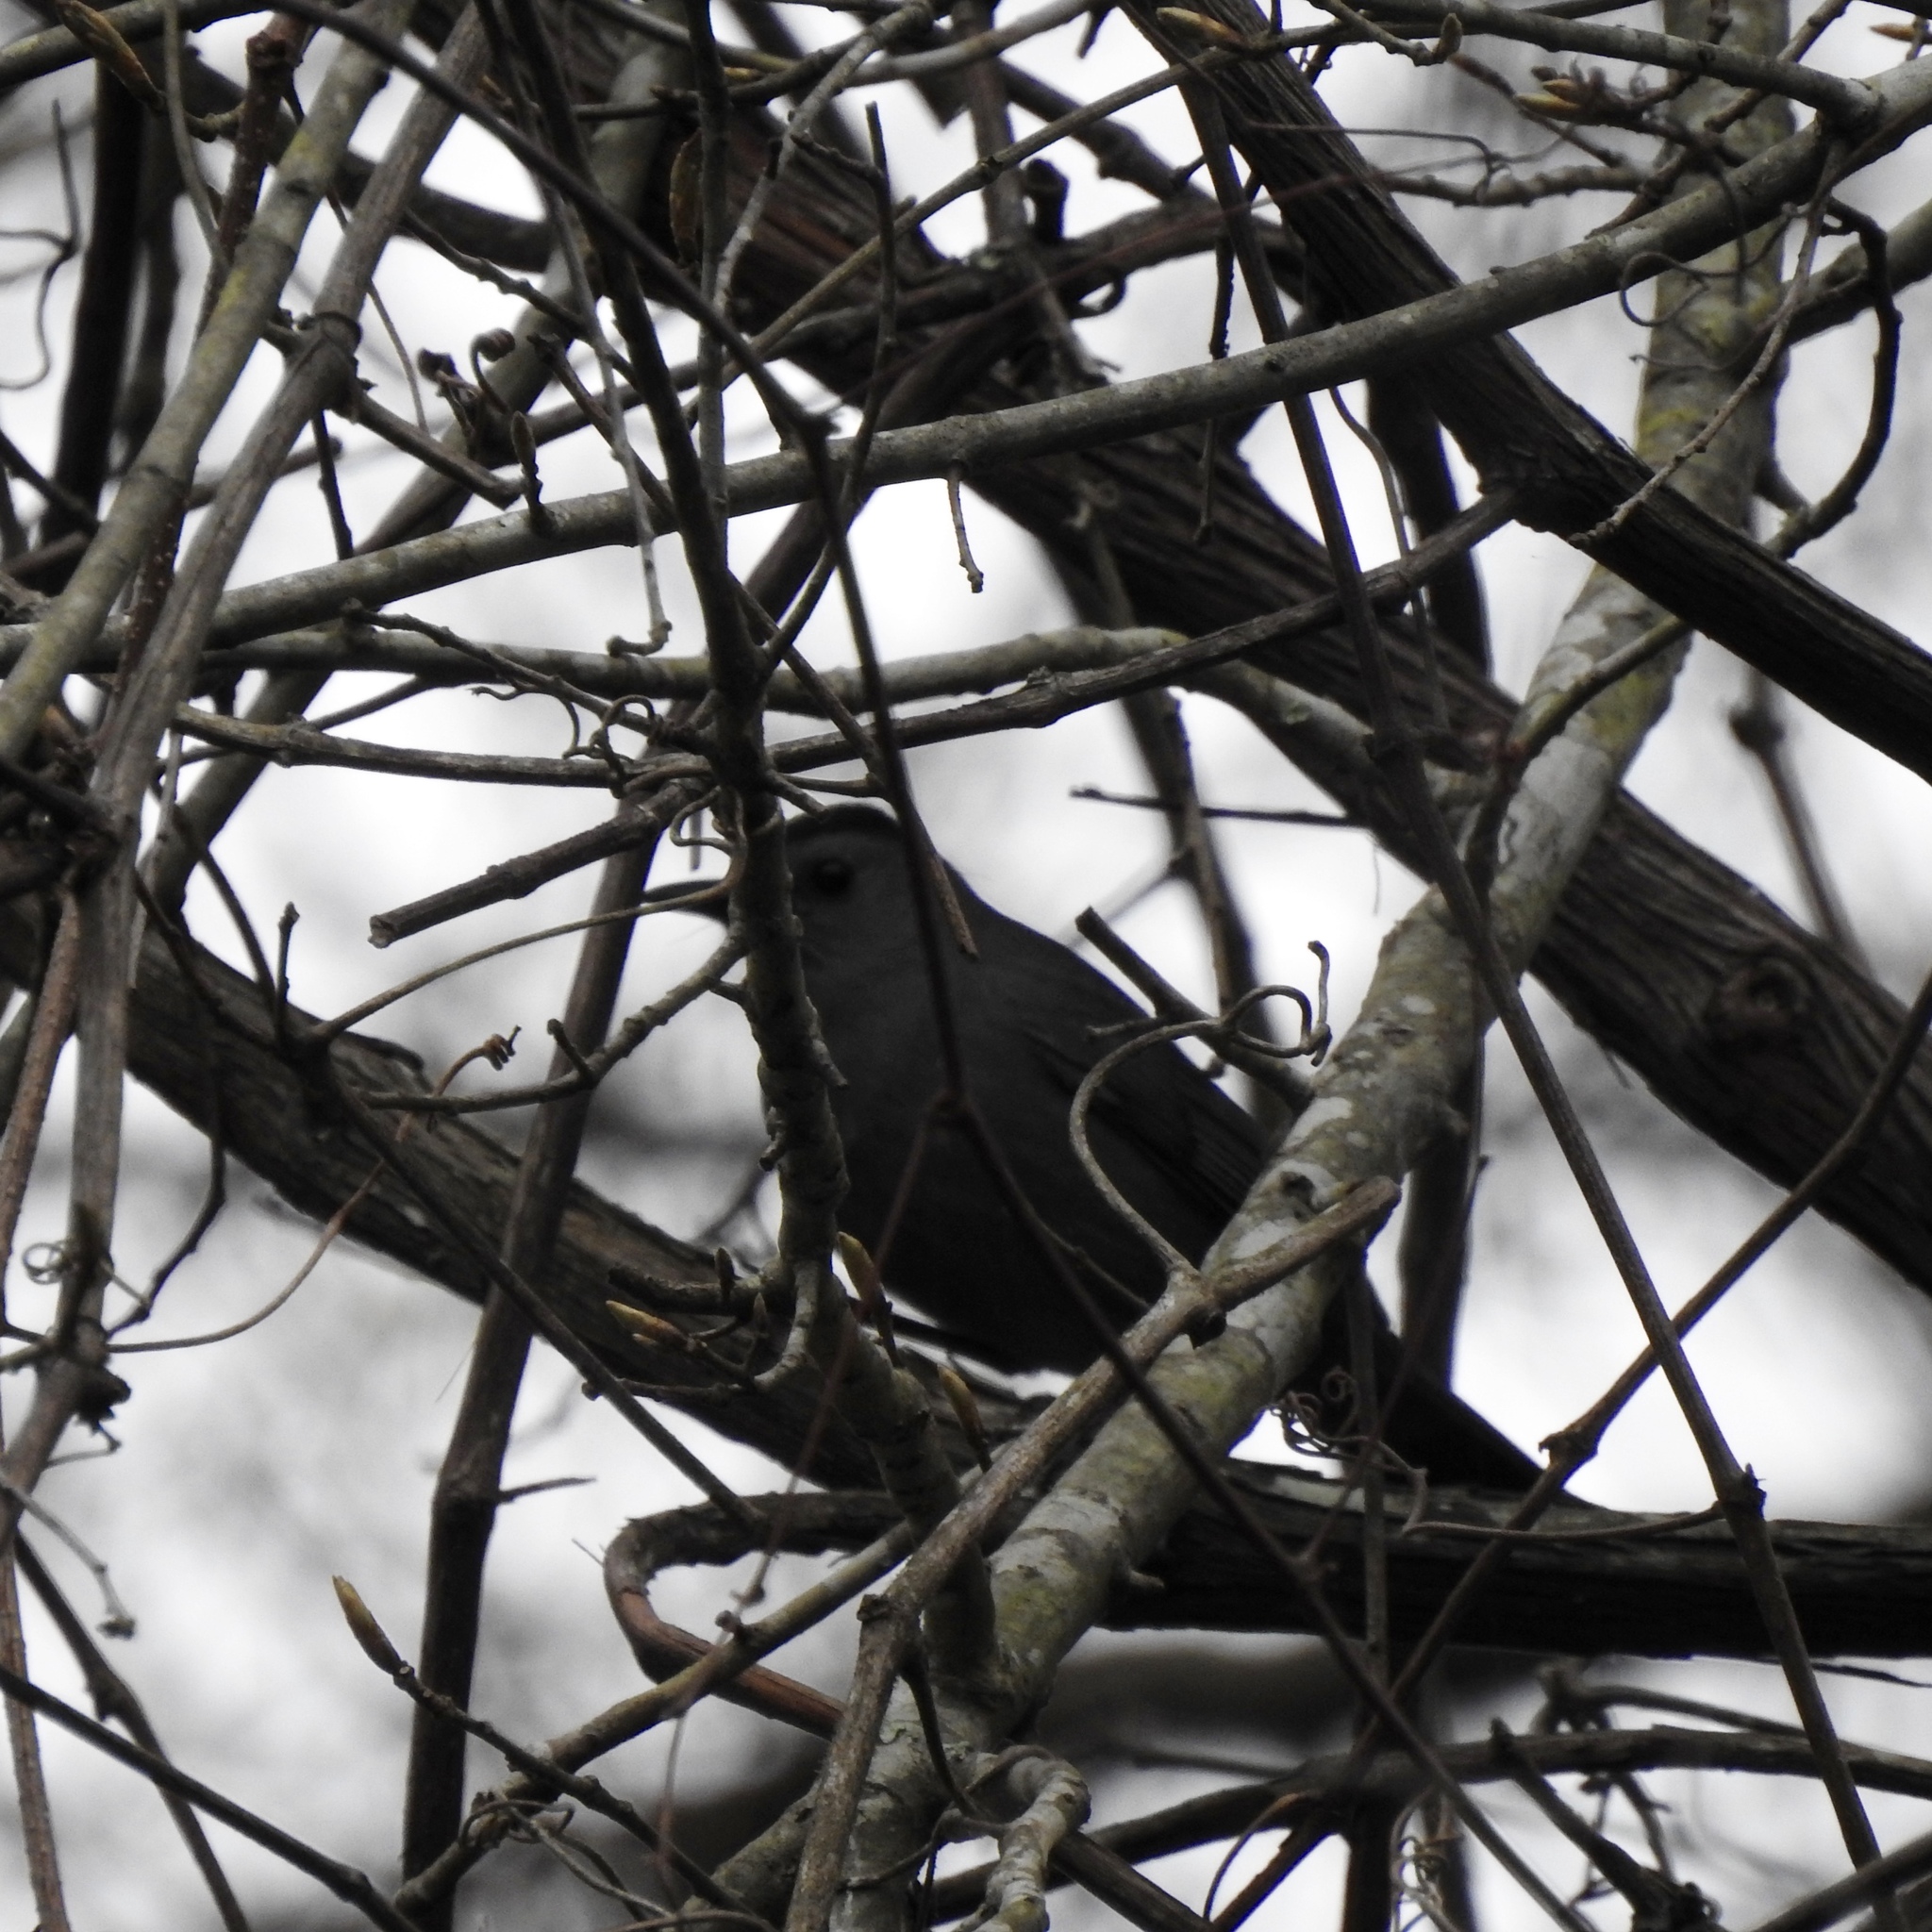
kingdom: Animalia
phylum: Chordata
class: Aves
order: Passeriformes
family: Mimidae
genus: Dumetella
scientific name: Dumetella carolinensis
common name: Gray catbird
